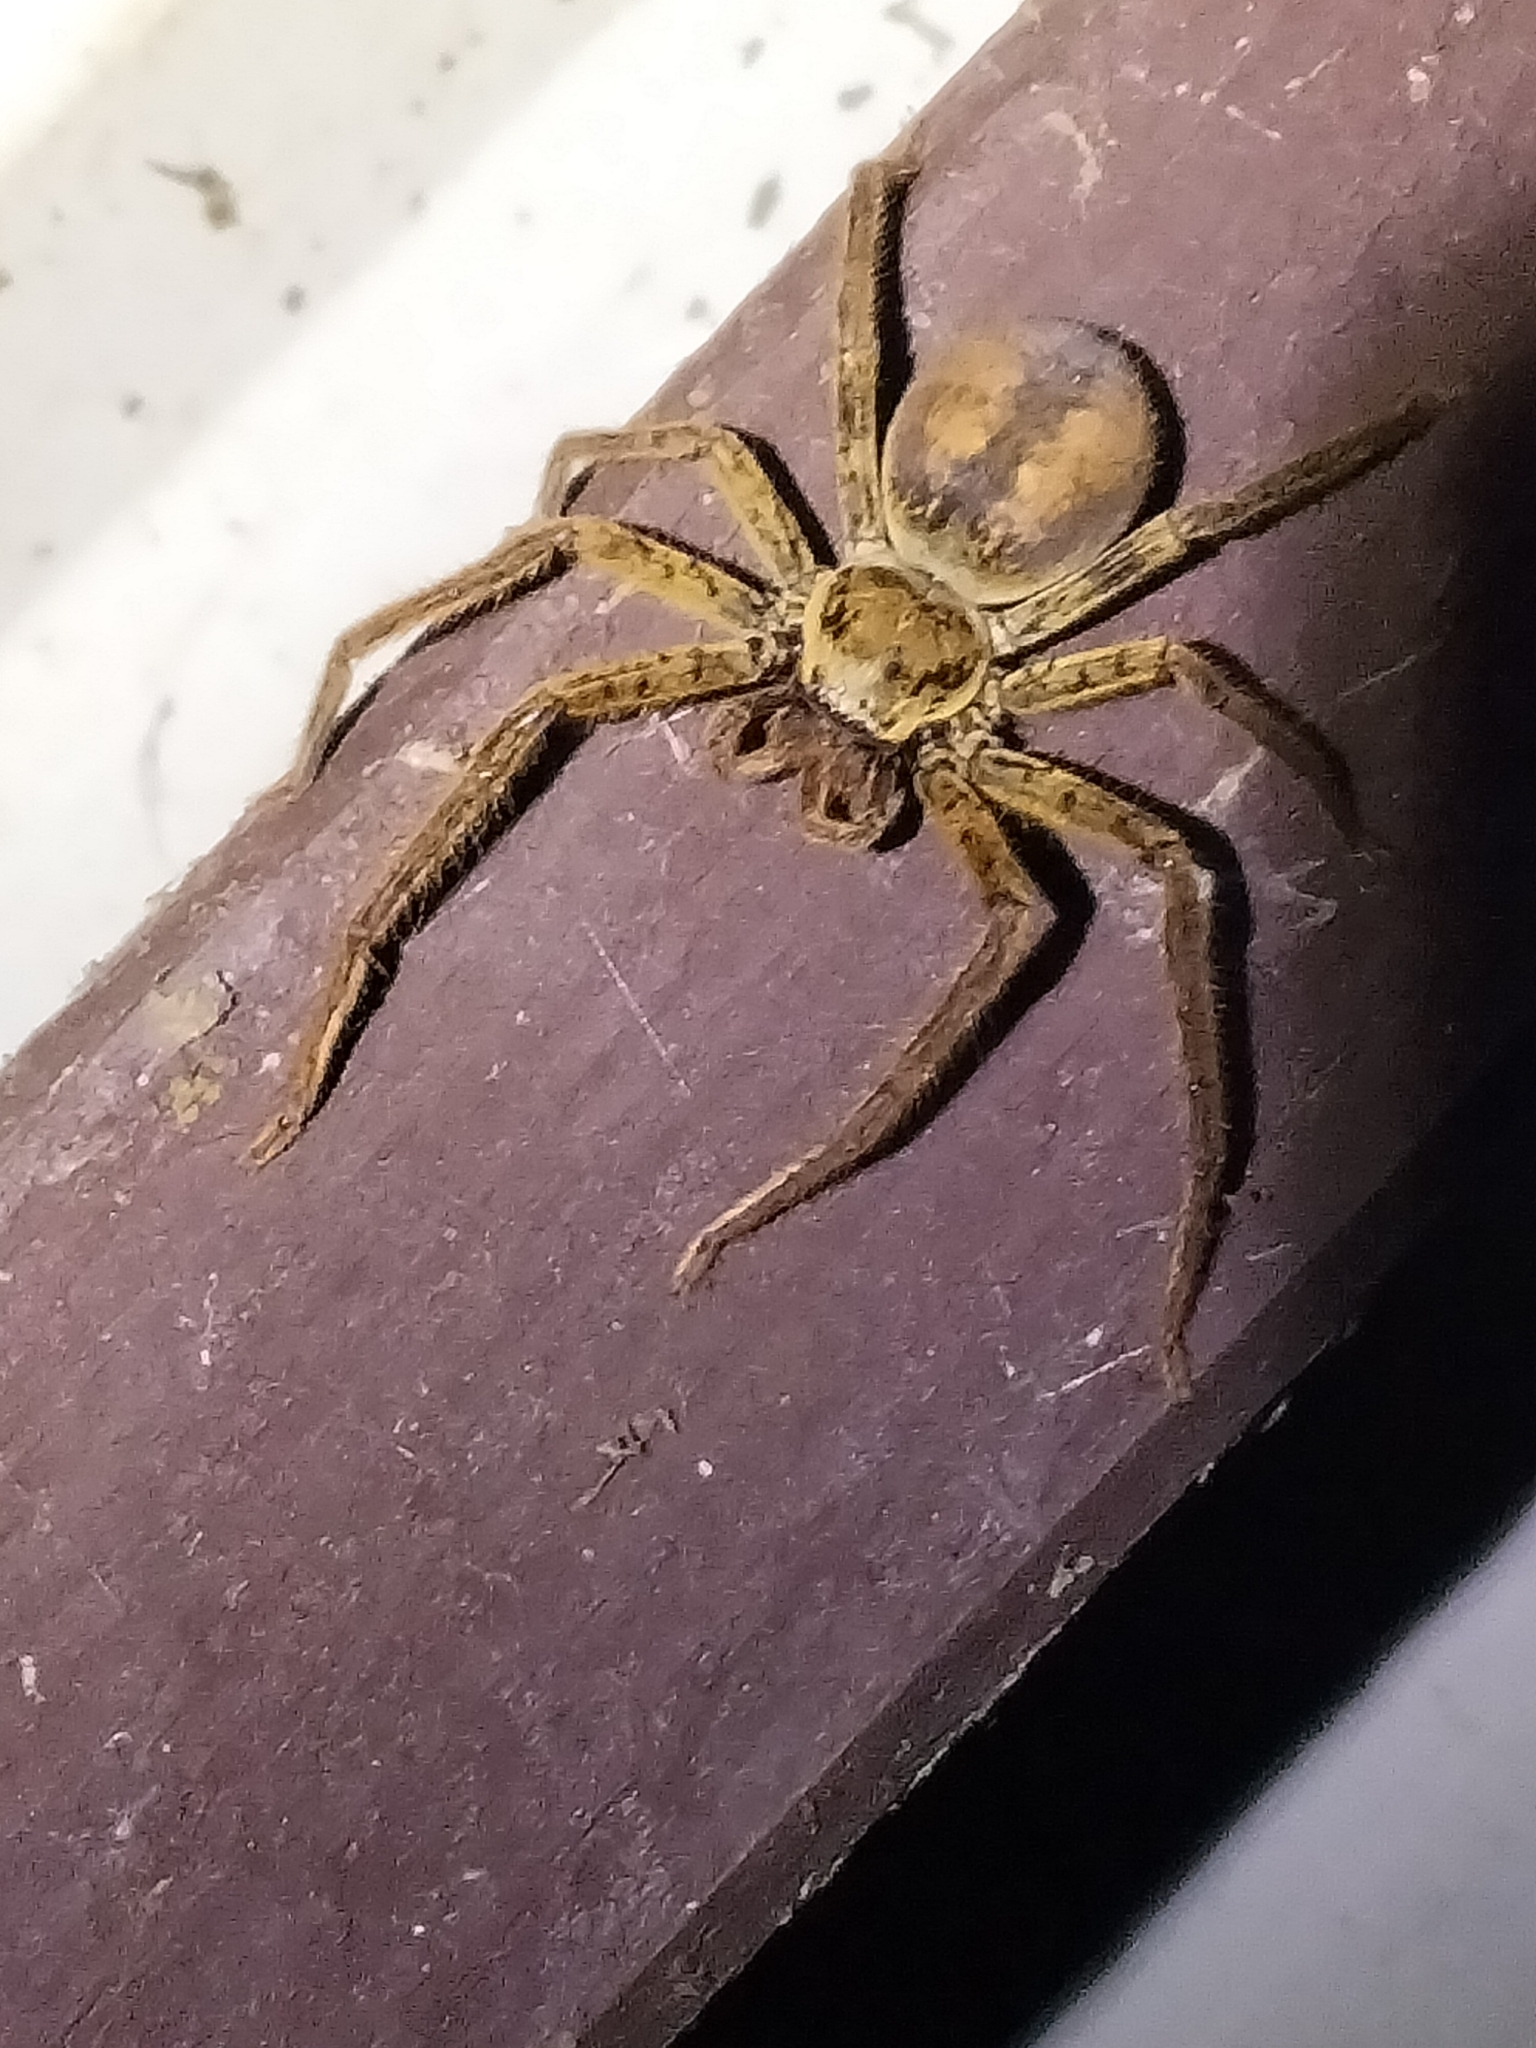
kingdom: Animalia
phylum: Arthropoda
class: Arachnida
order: Araneae
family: Sparassidae
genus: Beregama
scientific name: Beregama cordata
